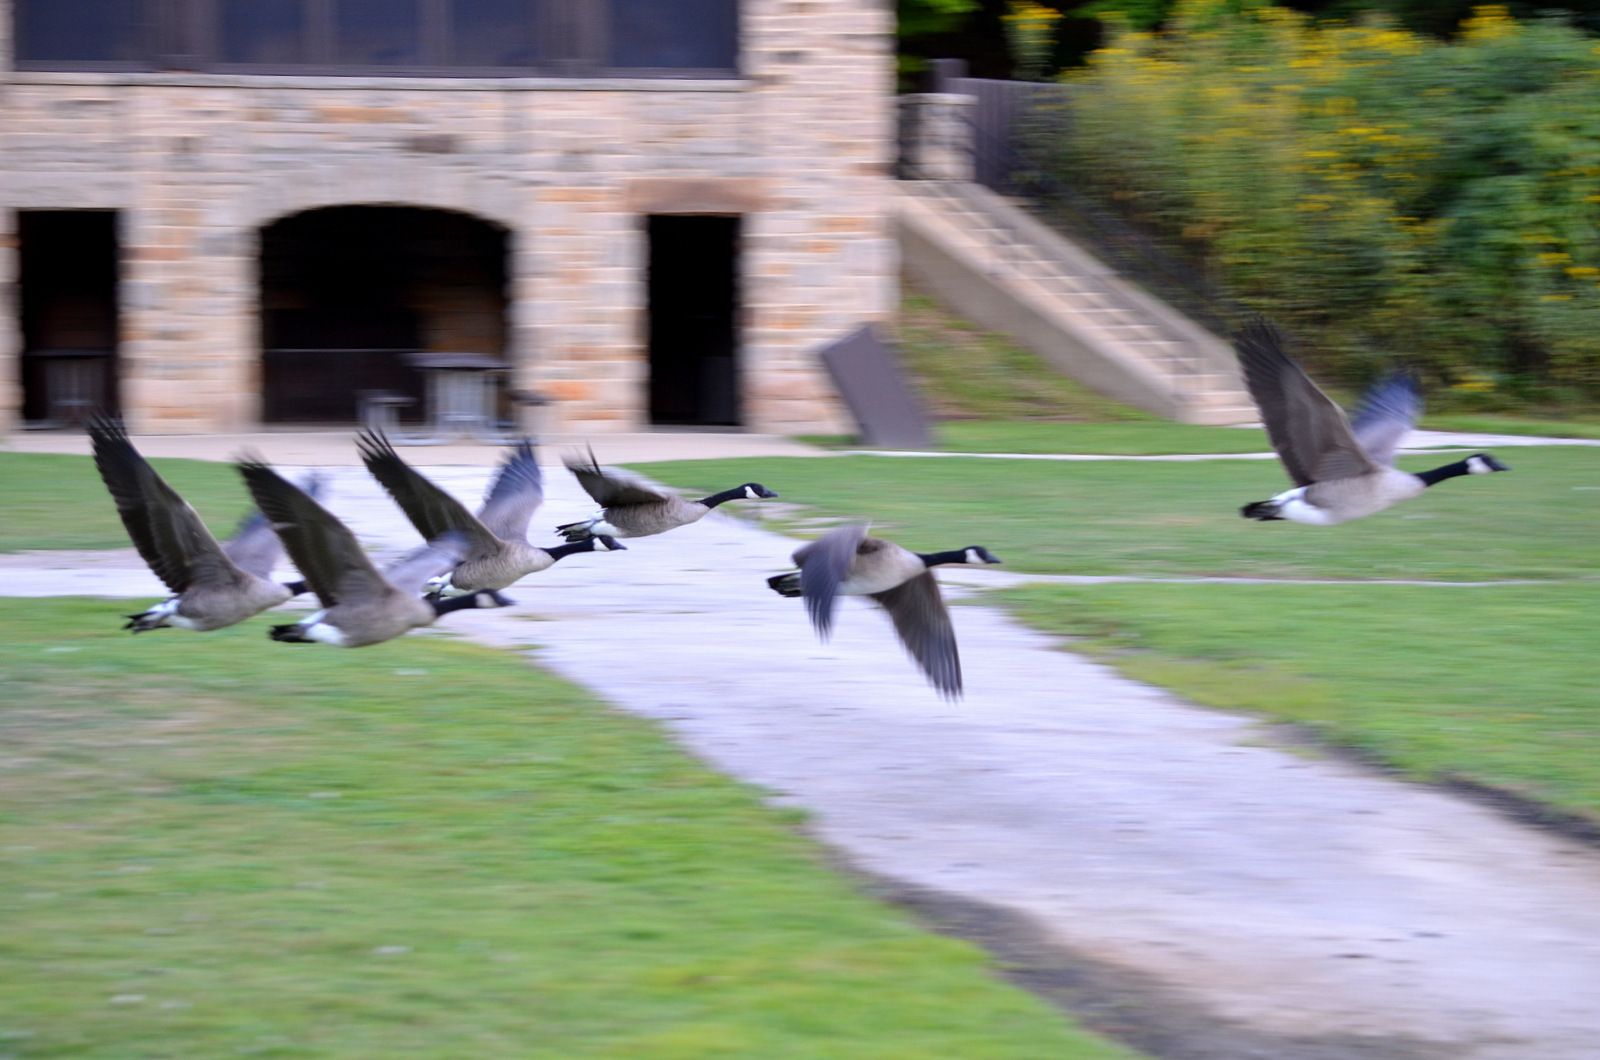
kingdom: Animalia
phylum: Chordata
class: Aves
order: Anseriformes
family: Anatidae
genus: Branta
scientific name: Branta canadensis
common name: Canada goose
